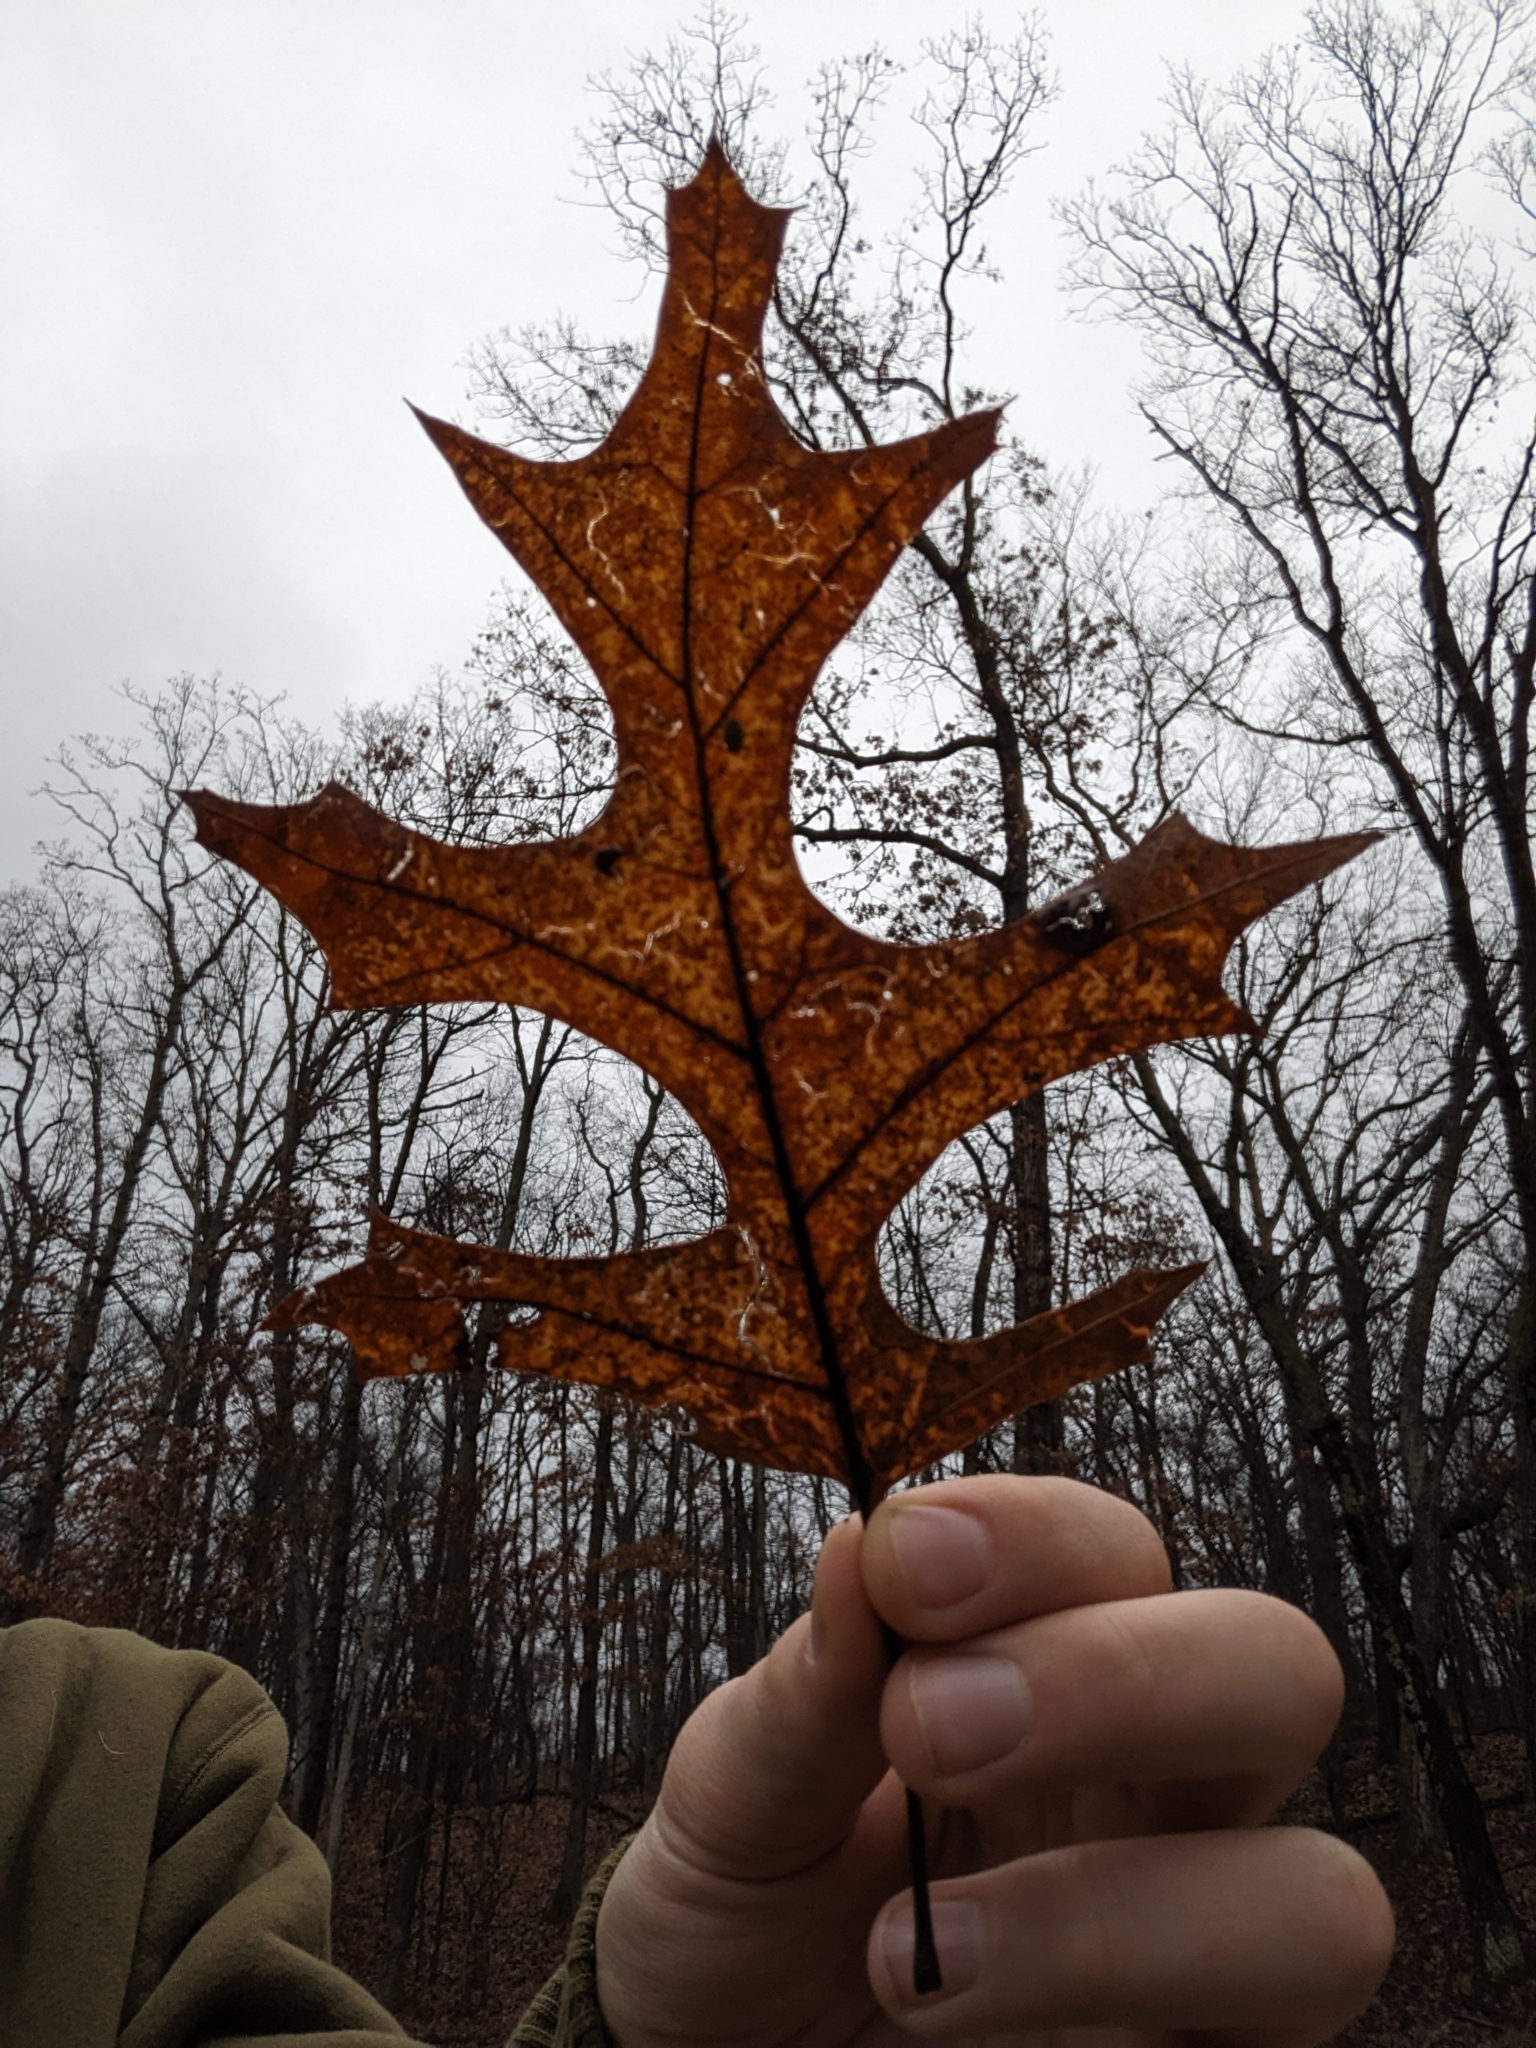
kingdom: Plantae
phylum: Tracheophyta
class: Magnoliopsida
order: Fagales
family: Fagaceae
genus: Quercus
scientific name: Quercus coccinea
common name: Scarlet oak
